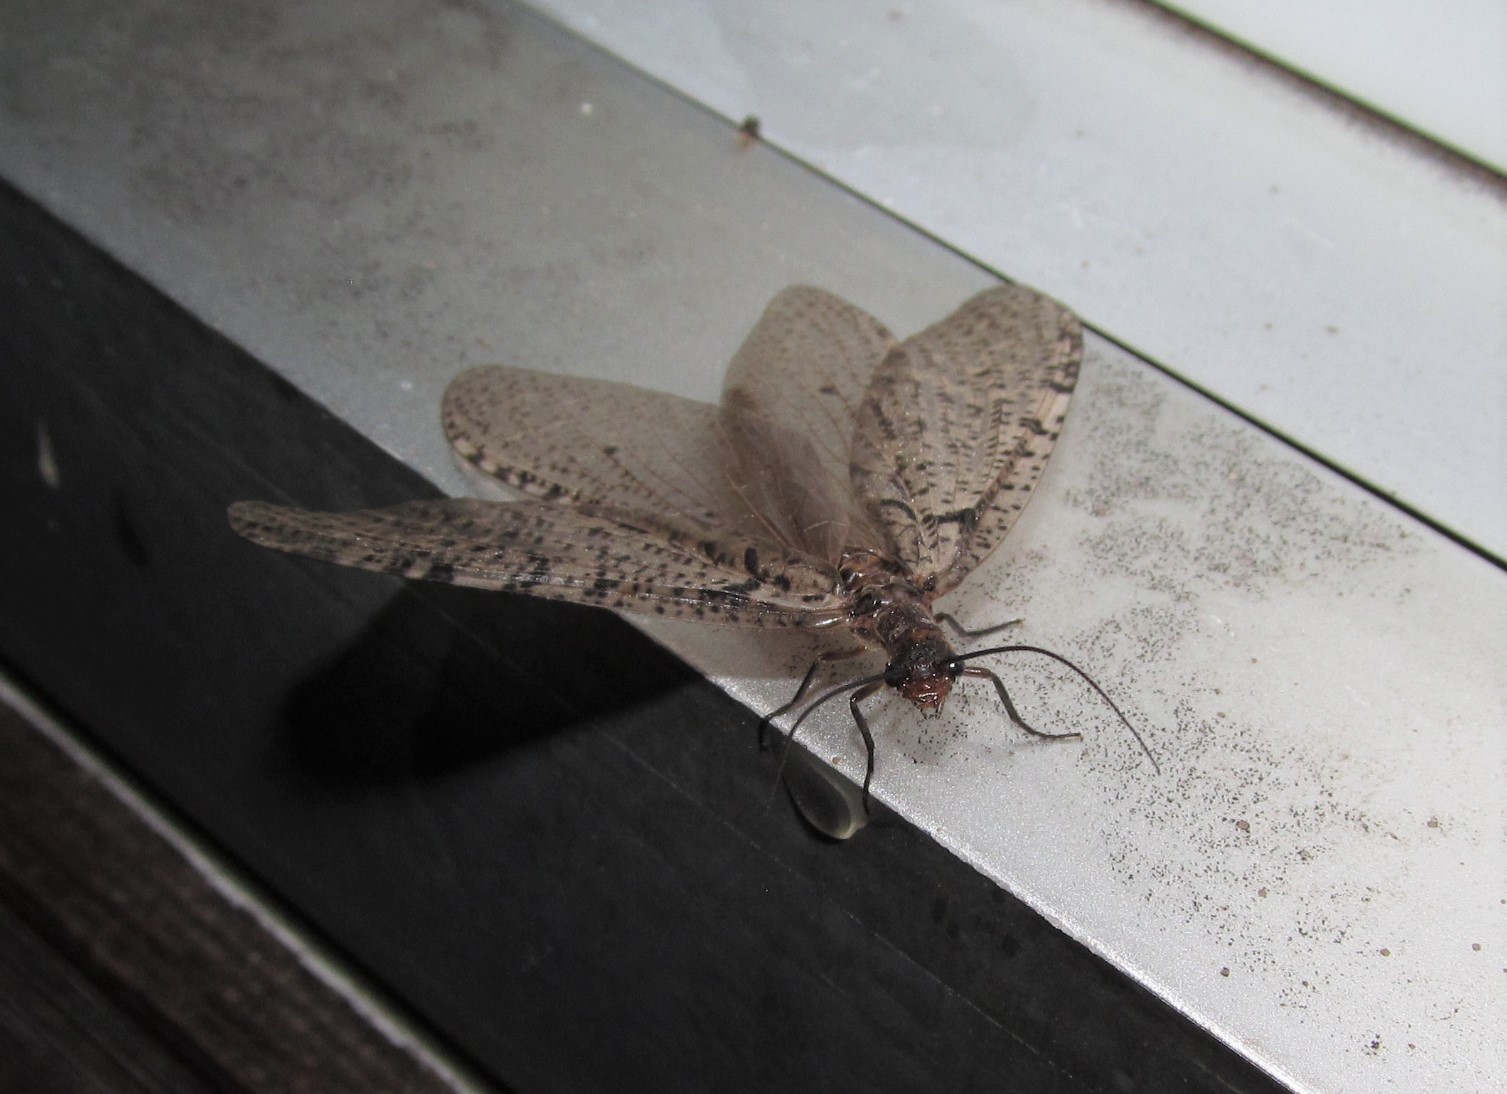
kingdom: Animalia
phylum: Arthropoda
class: Insecta
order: Megaloptera
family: Corydalidae
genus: Neohermes
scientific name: Neohermes concolor
